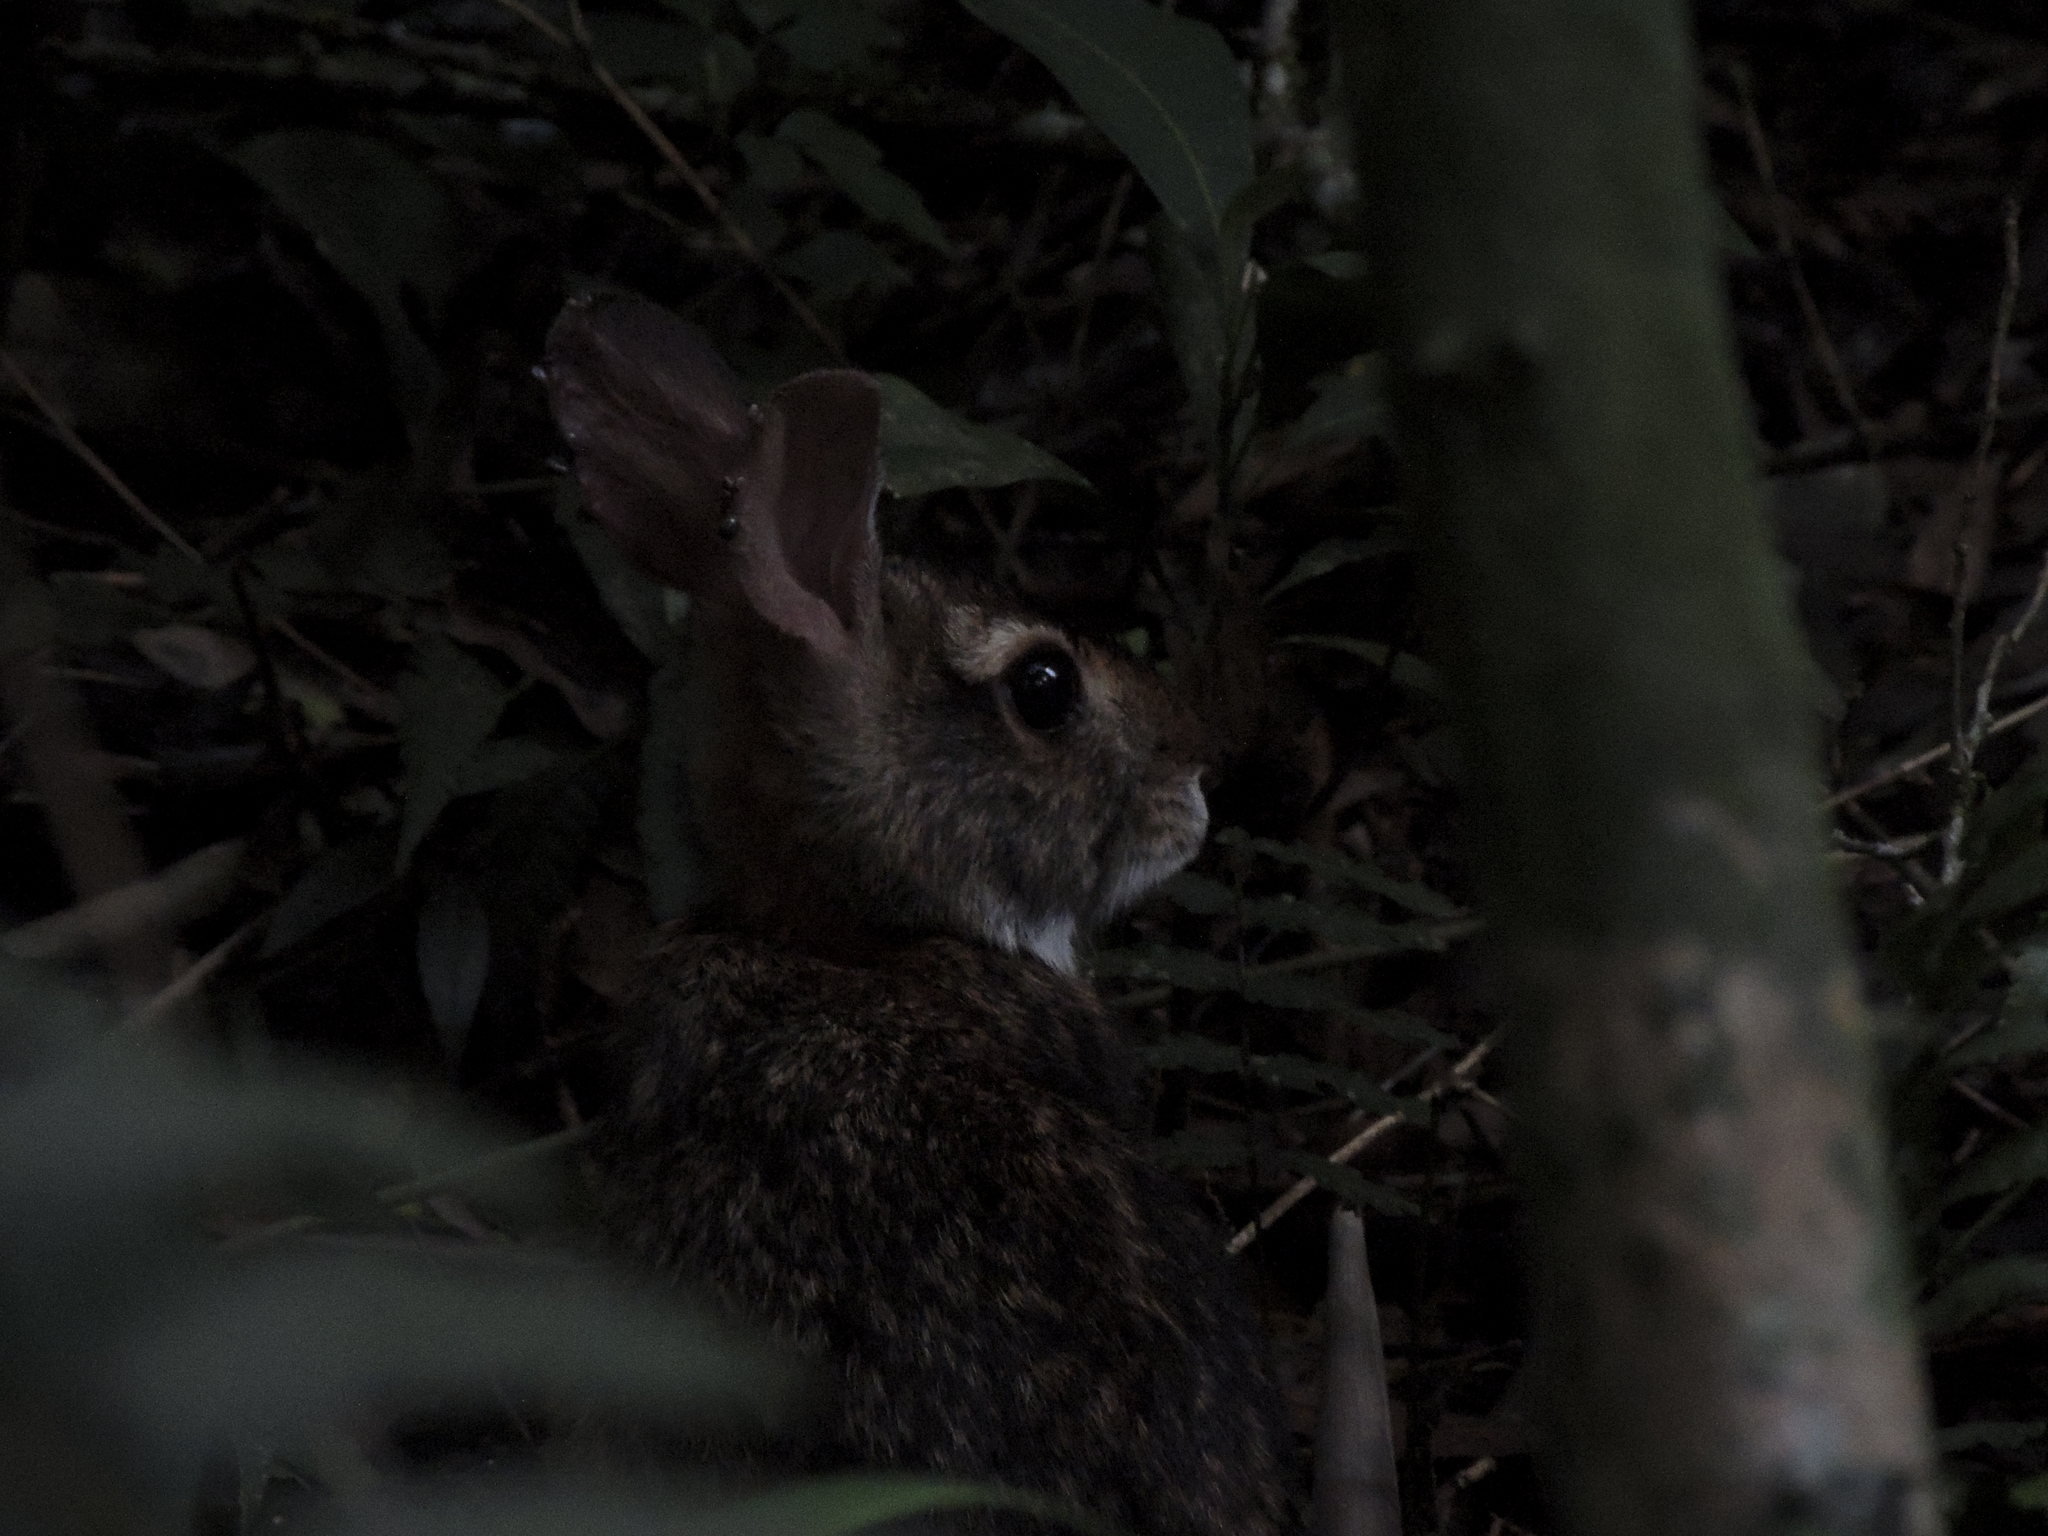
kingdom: Animalia
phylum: Chordata
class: Mammalia
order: Lagomorpha
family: Leporidae
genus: Sylvilagus
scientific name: Sylvilagus brasiliensis
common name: Tapeti
